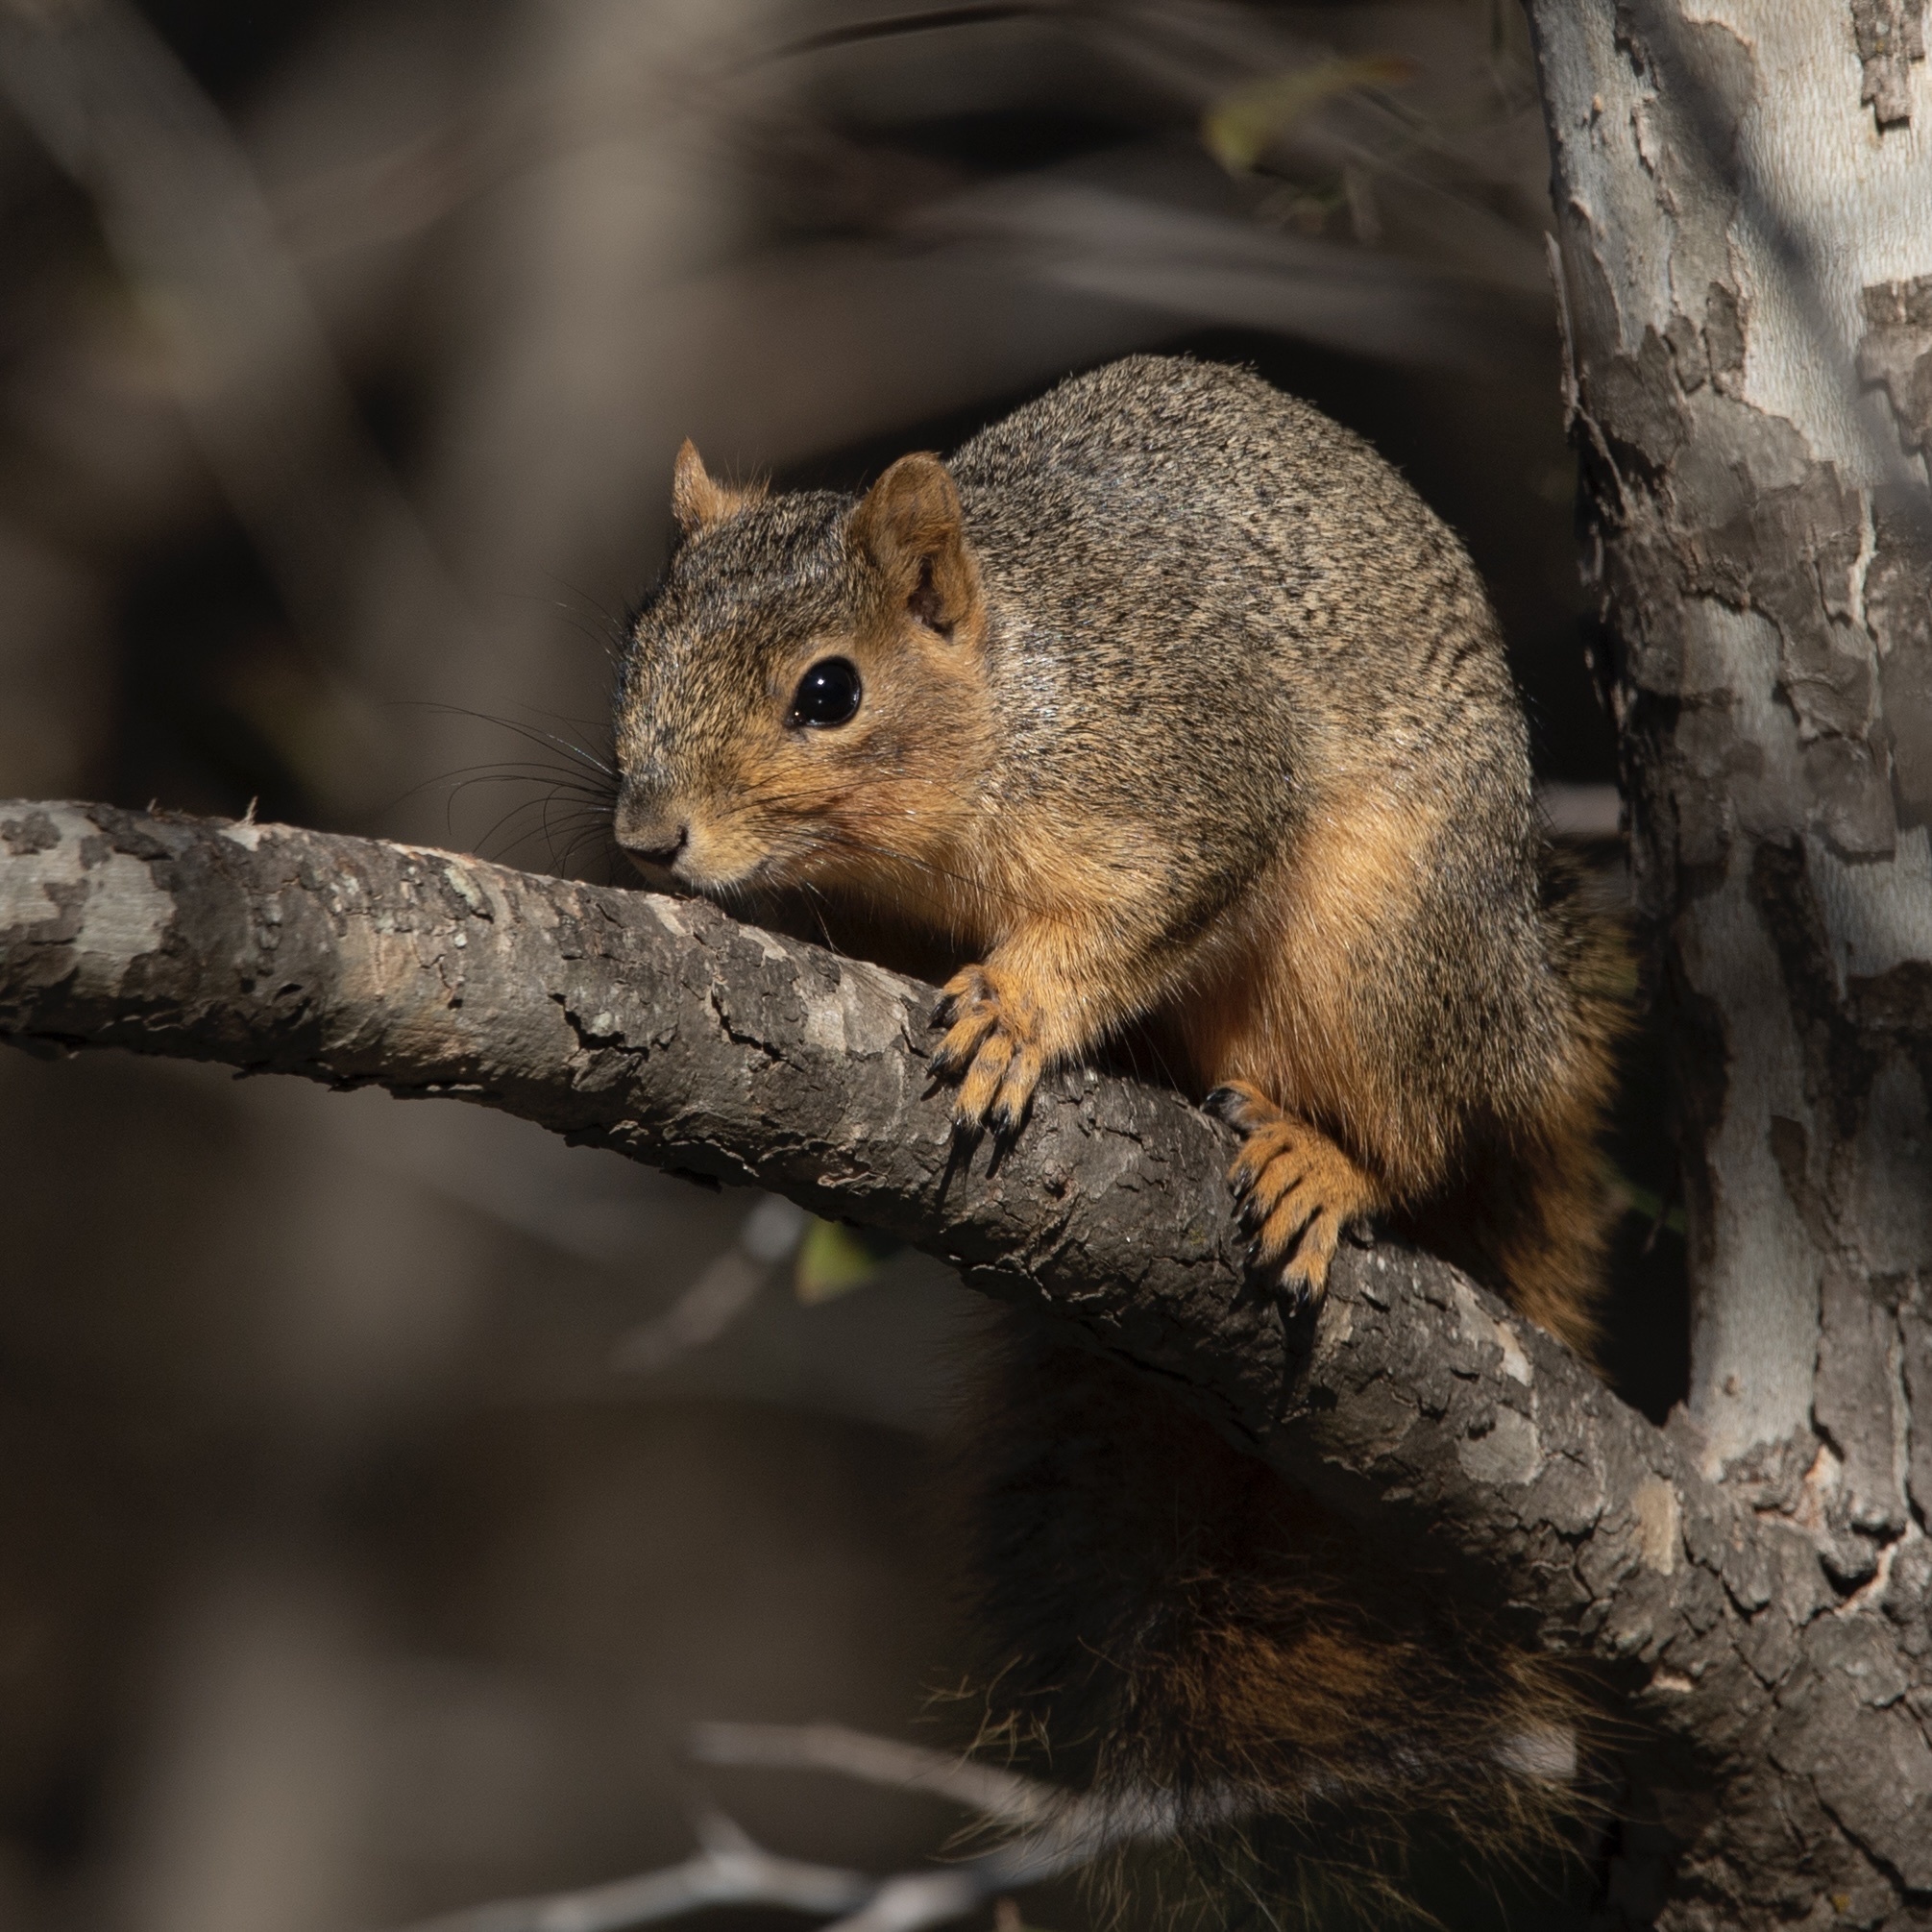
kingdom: Animalia
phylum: Chordata
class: Mammalia
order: Rodentia
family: Sciuridae
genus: Sciurus
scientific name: Sciurus niger
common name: Fox squirrel
